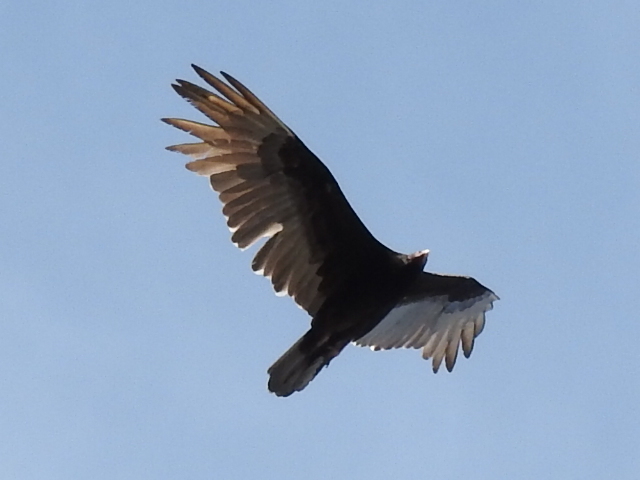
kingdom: Animalia
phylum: Chordata
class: Aves
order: Accipitriformes
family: Cathartidae
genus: Cathartes
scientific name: Cathartes aura
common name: Turkey vulture
